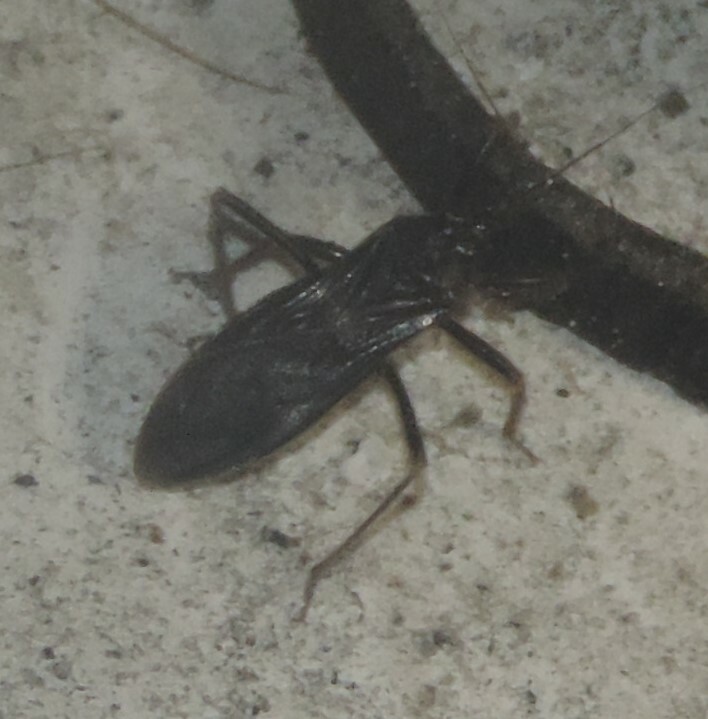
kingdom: Animalia
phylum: Arthropoda
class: Insecta
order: Hemiptera
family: Reduviidae
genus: Reduvius
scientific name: Reduvius personatus
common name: Masked hunter
